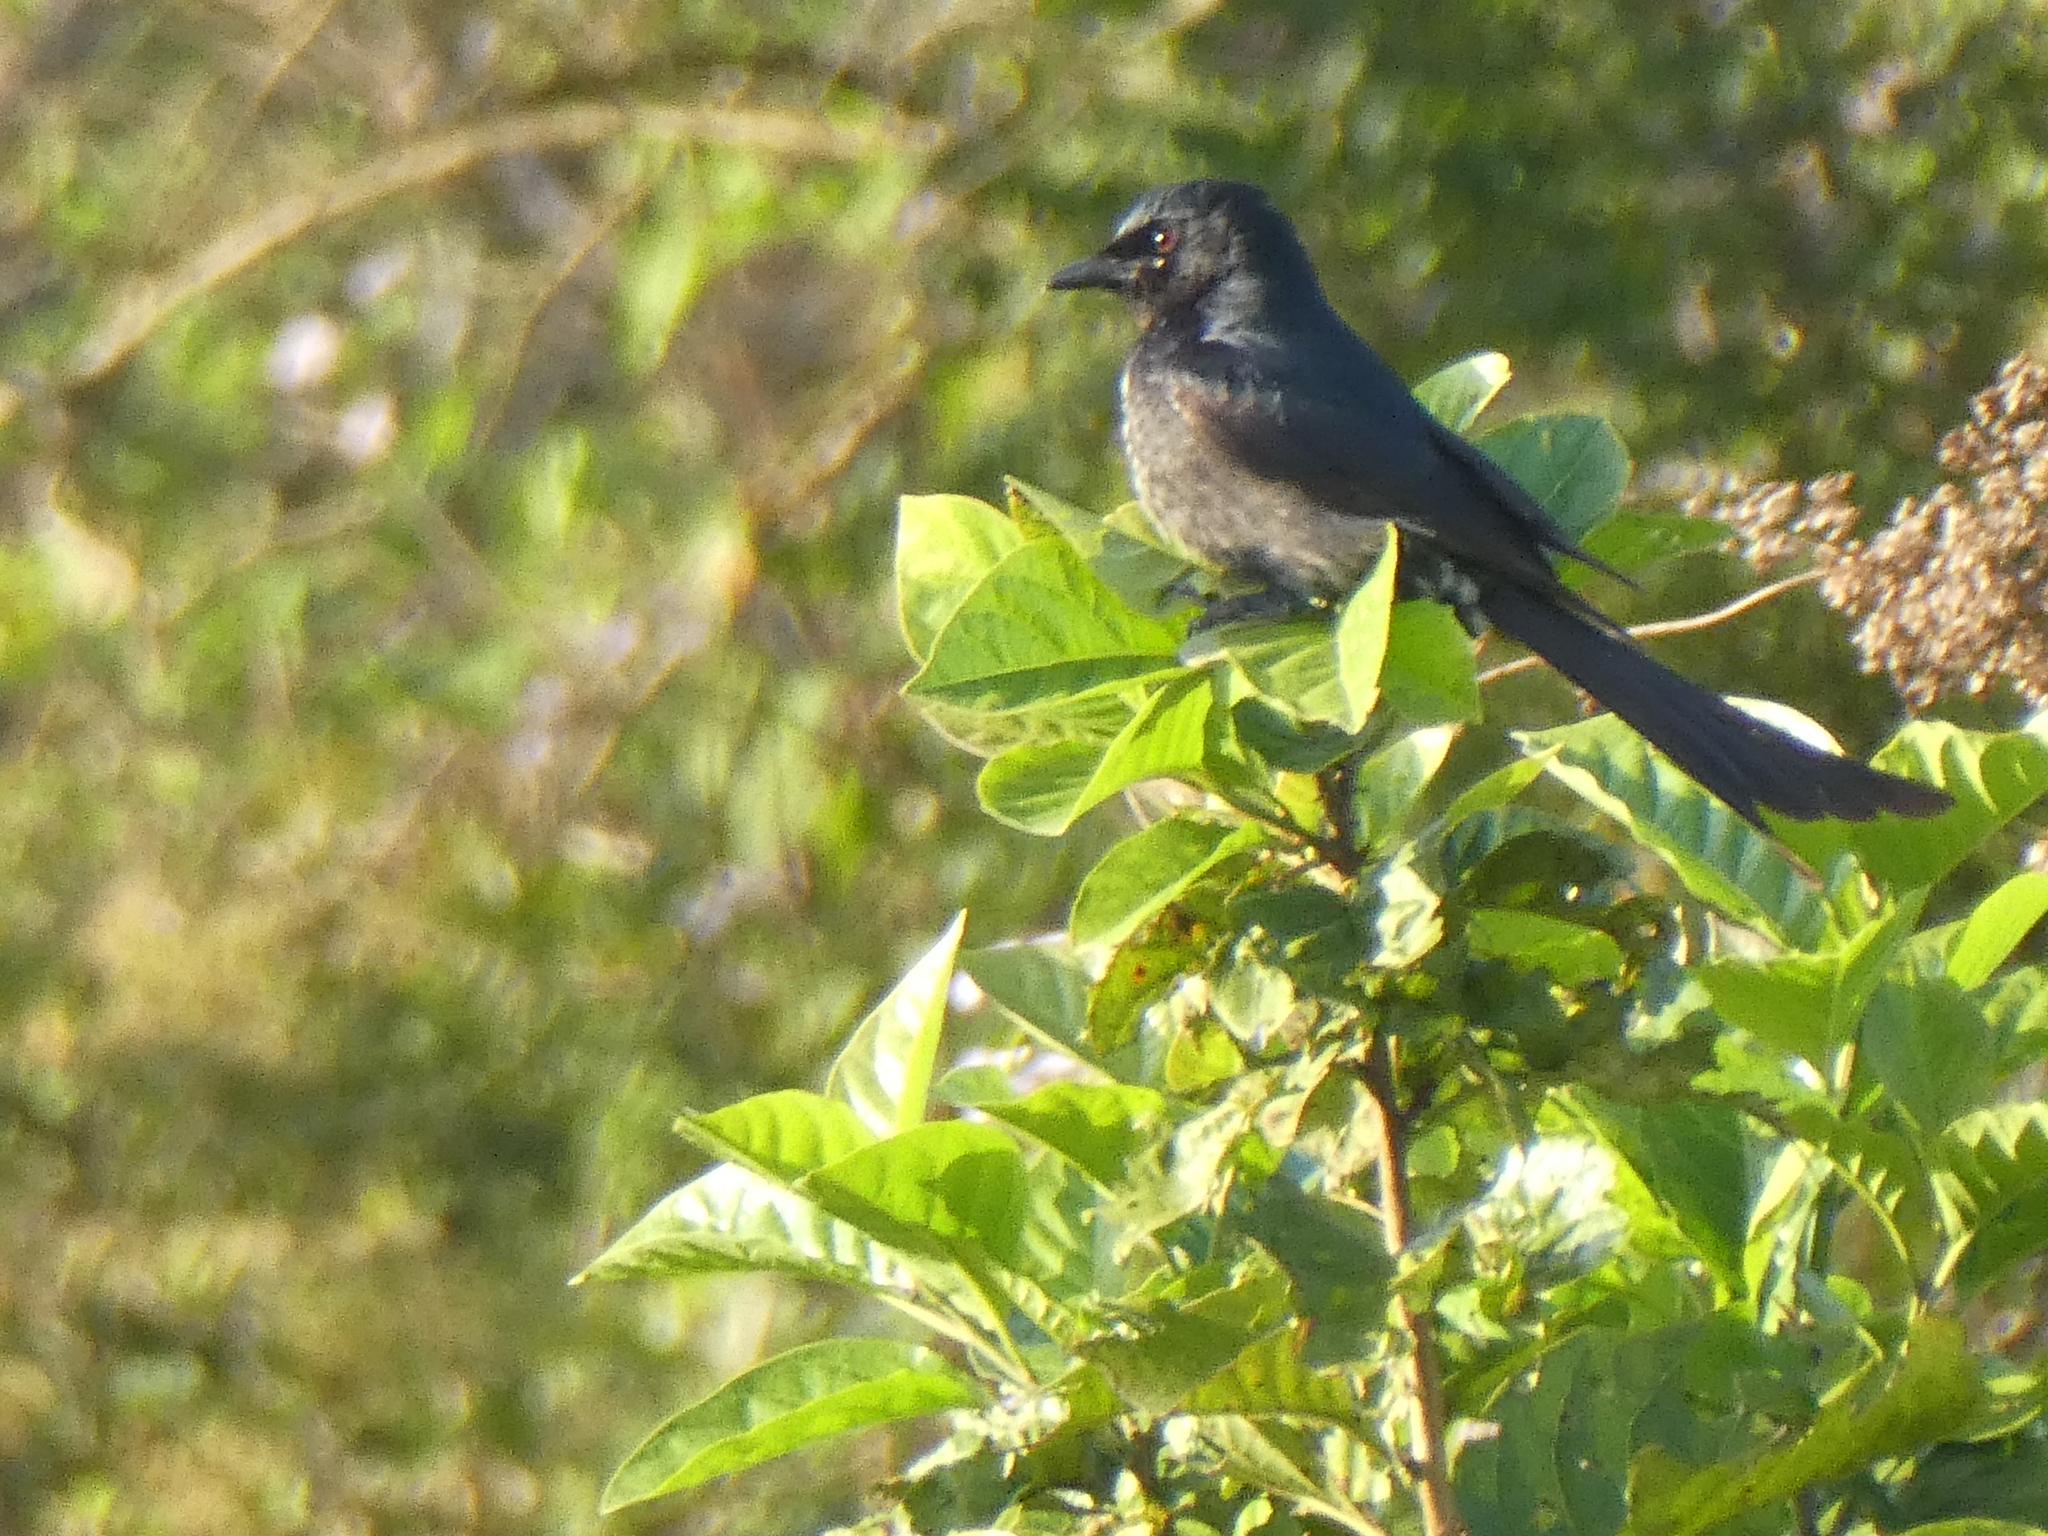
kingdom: Animalia
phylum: Chordata
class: Aves
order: Passeriformes
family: Dicruridae
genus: Dicrurus
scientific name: Dicrurus macrocercus
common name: Black drongo
